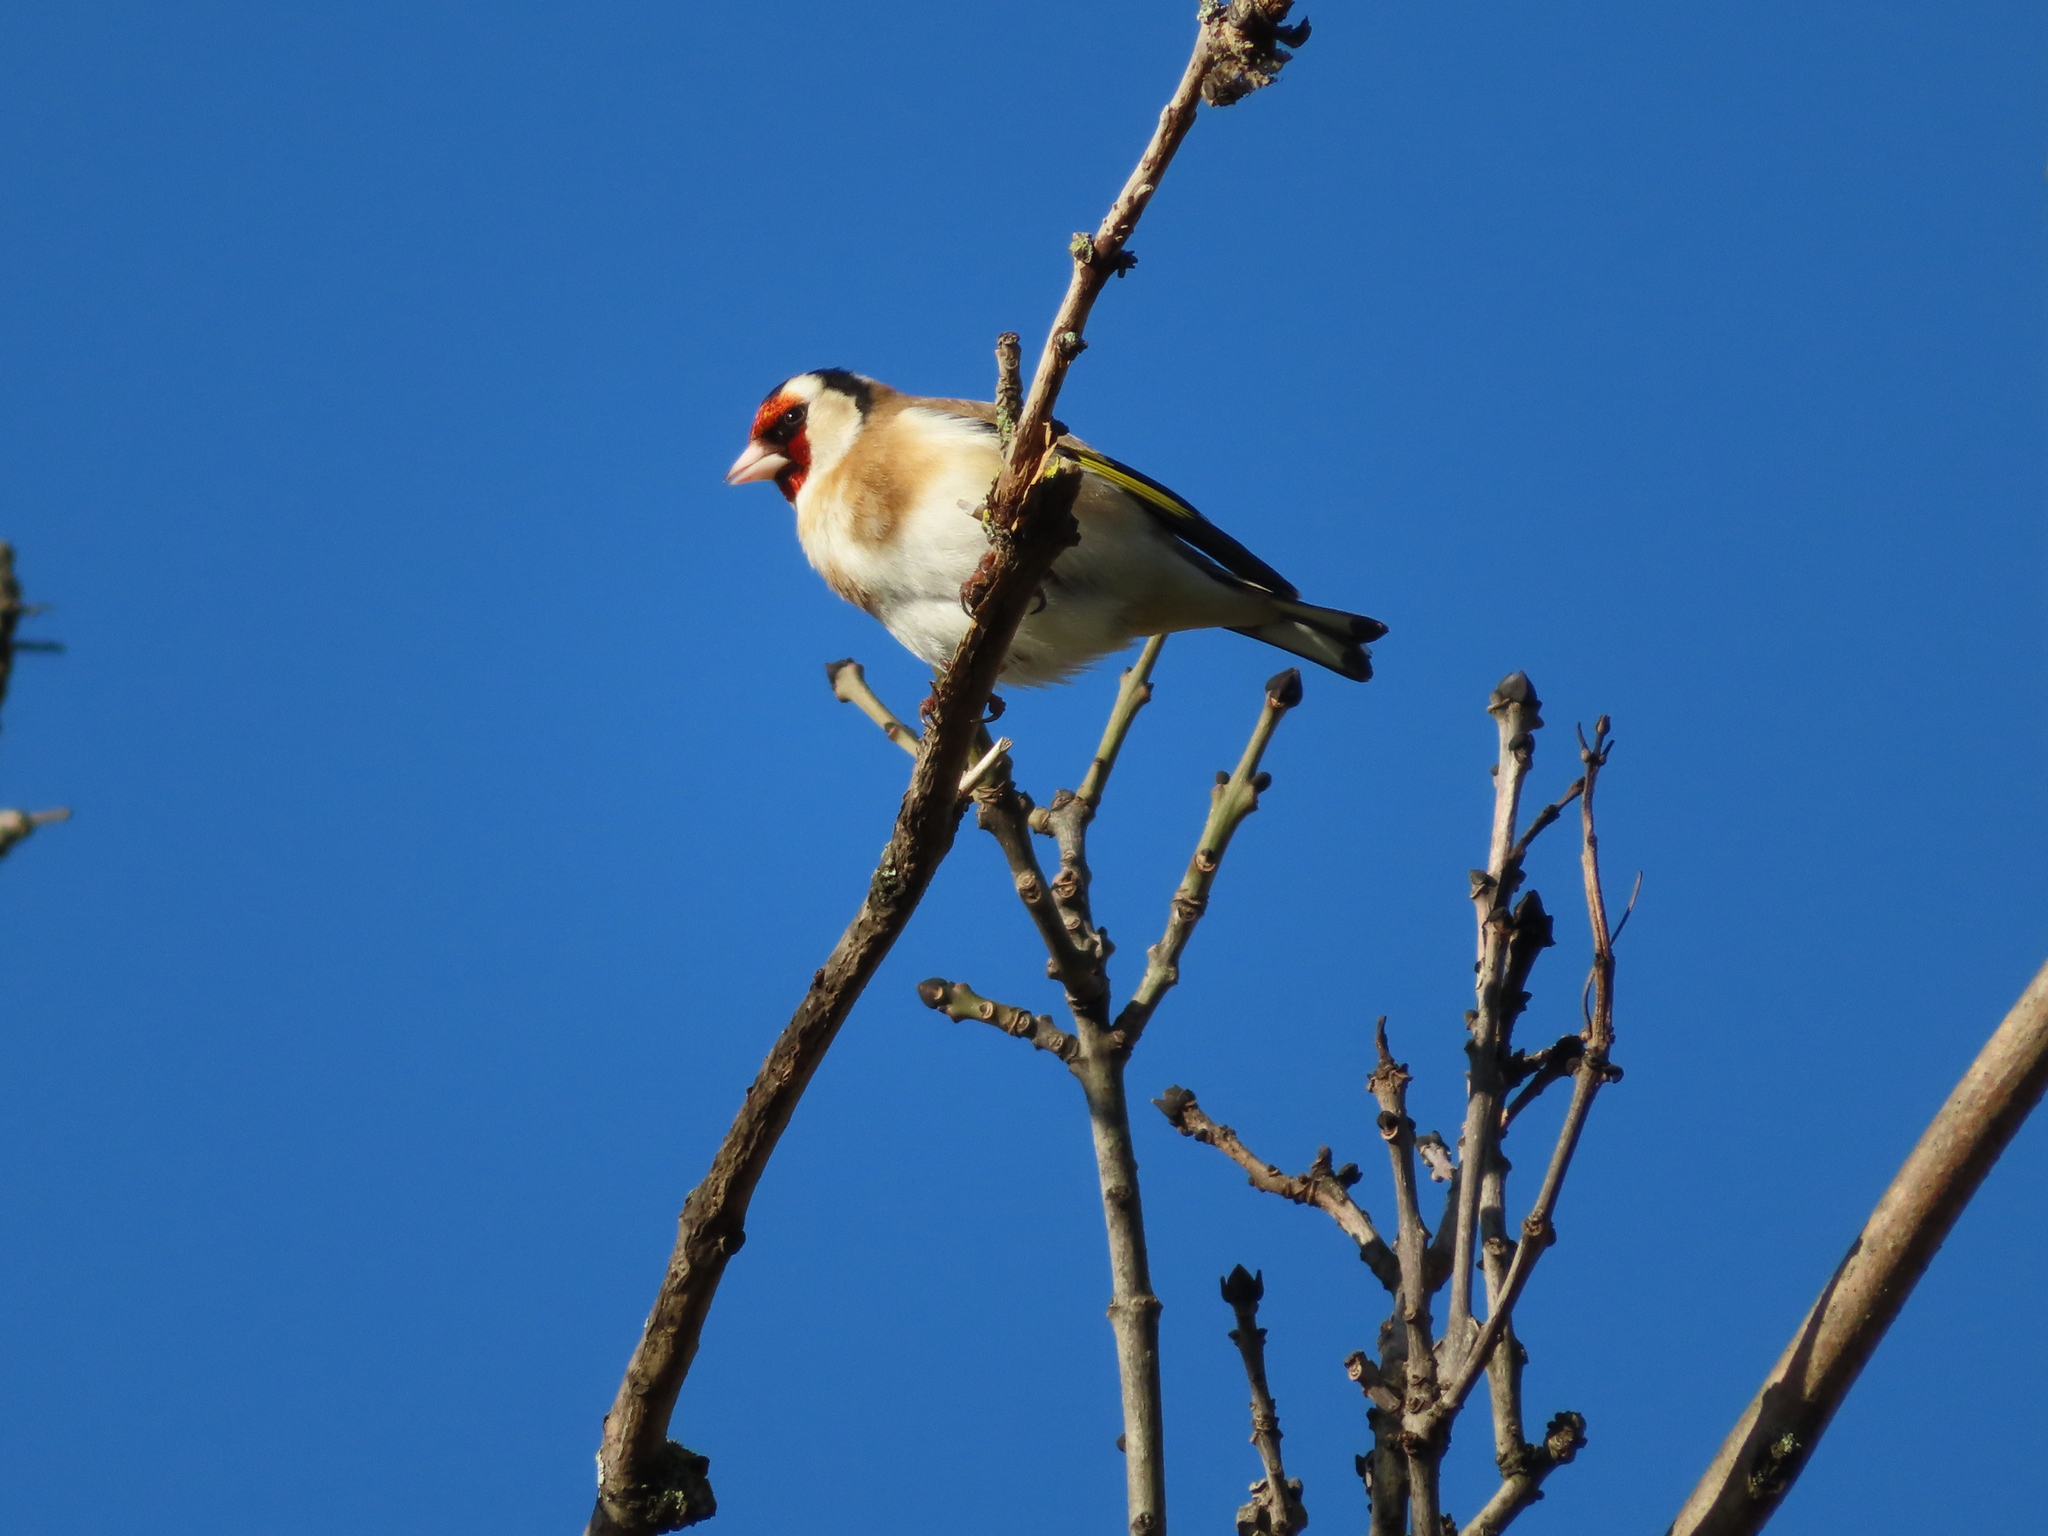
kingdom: Animalia
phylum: Chordata
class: Aves
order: Passeriformes
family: Fringillidae
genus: Carduelis
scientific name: Carduelis carduelis
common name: European goldfinch
